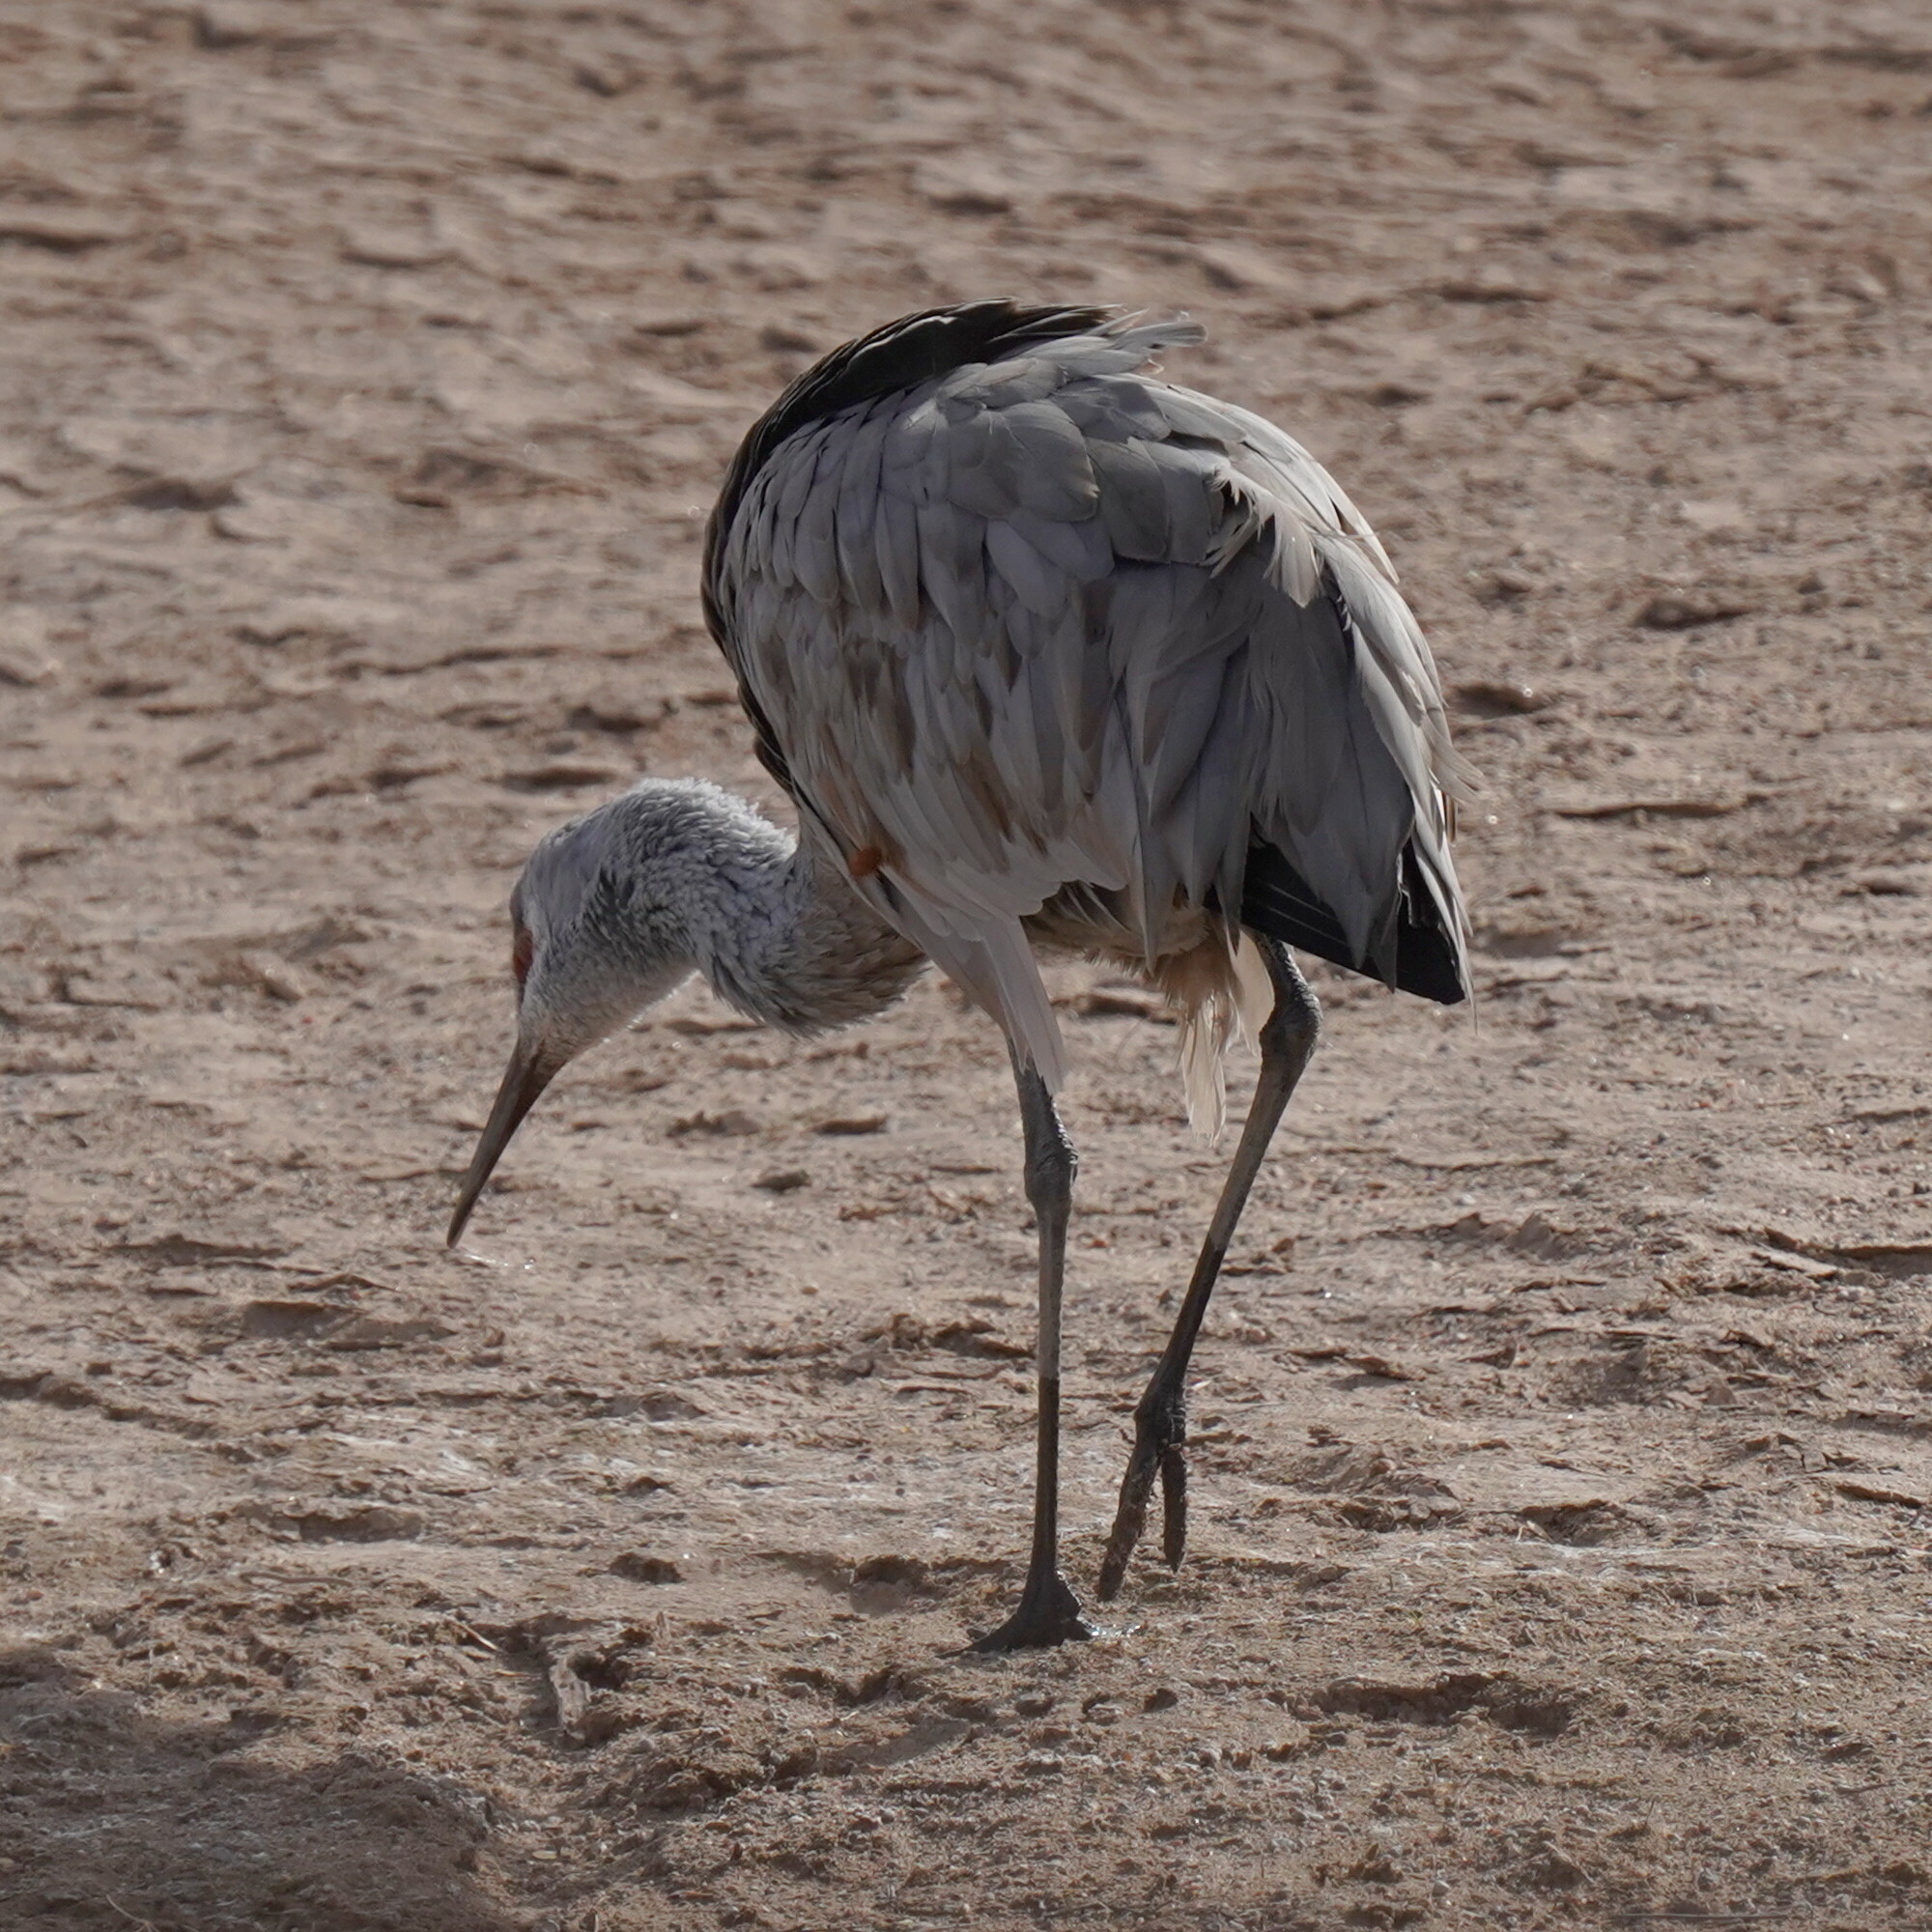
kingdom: Animalia
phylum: Chordata
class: Aves
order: Gruiformes
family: Gruidae
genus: Grus
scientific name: Grus canadensis
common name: Sandhill crane
